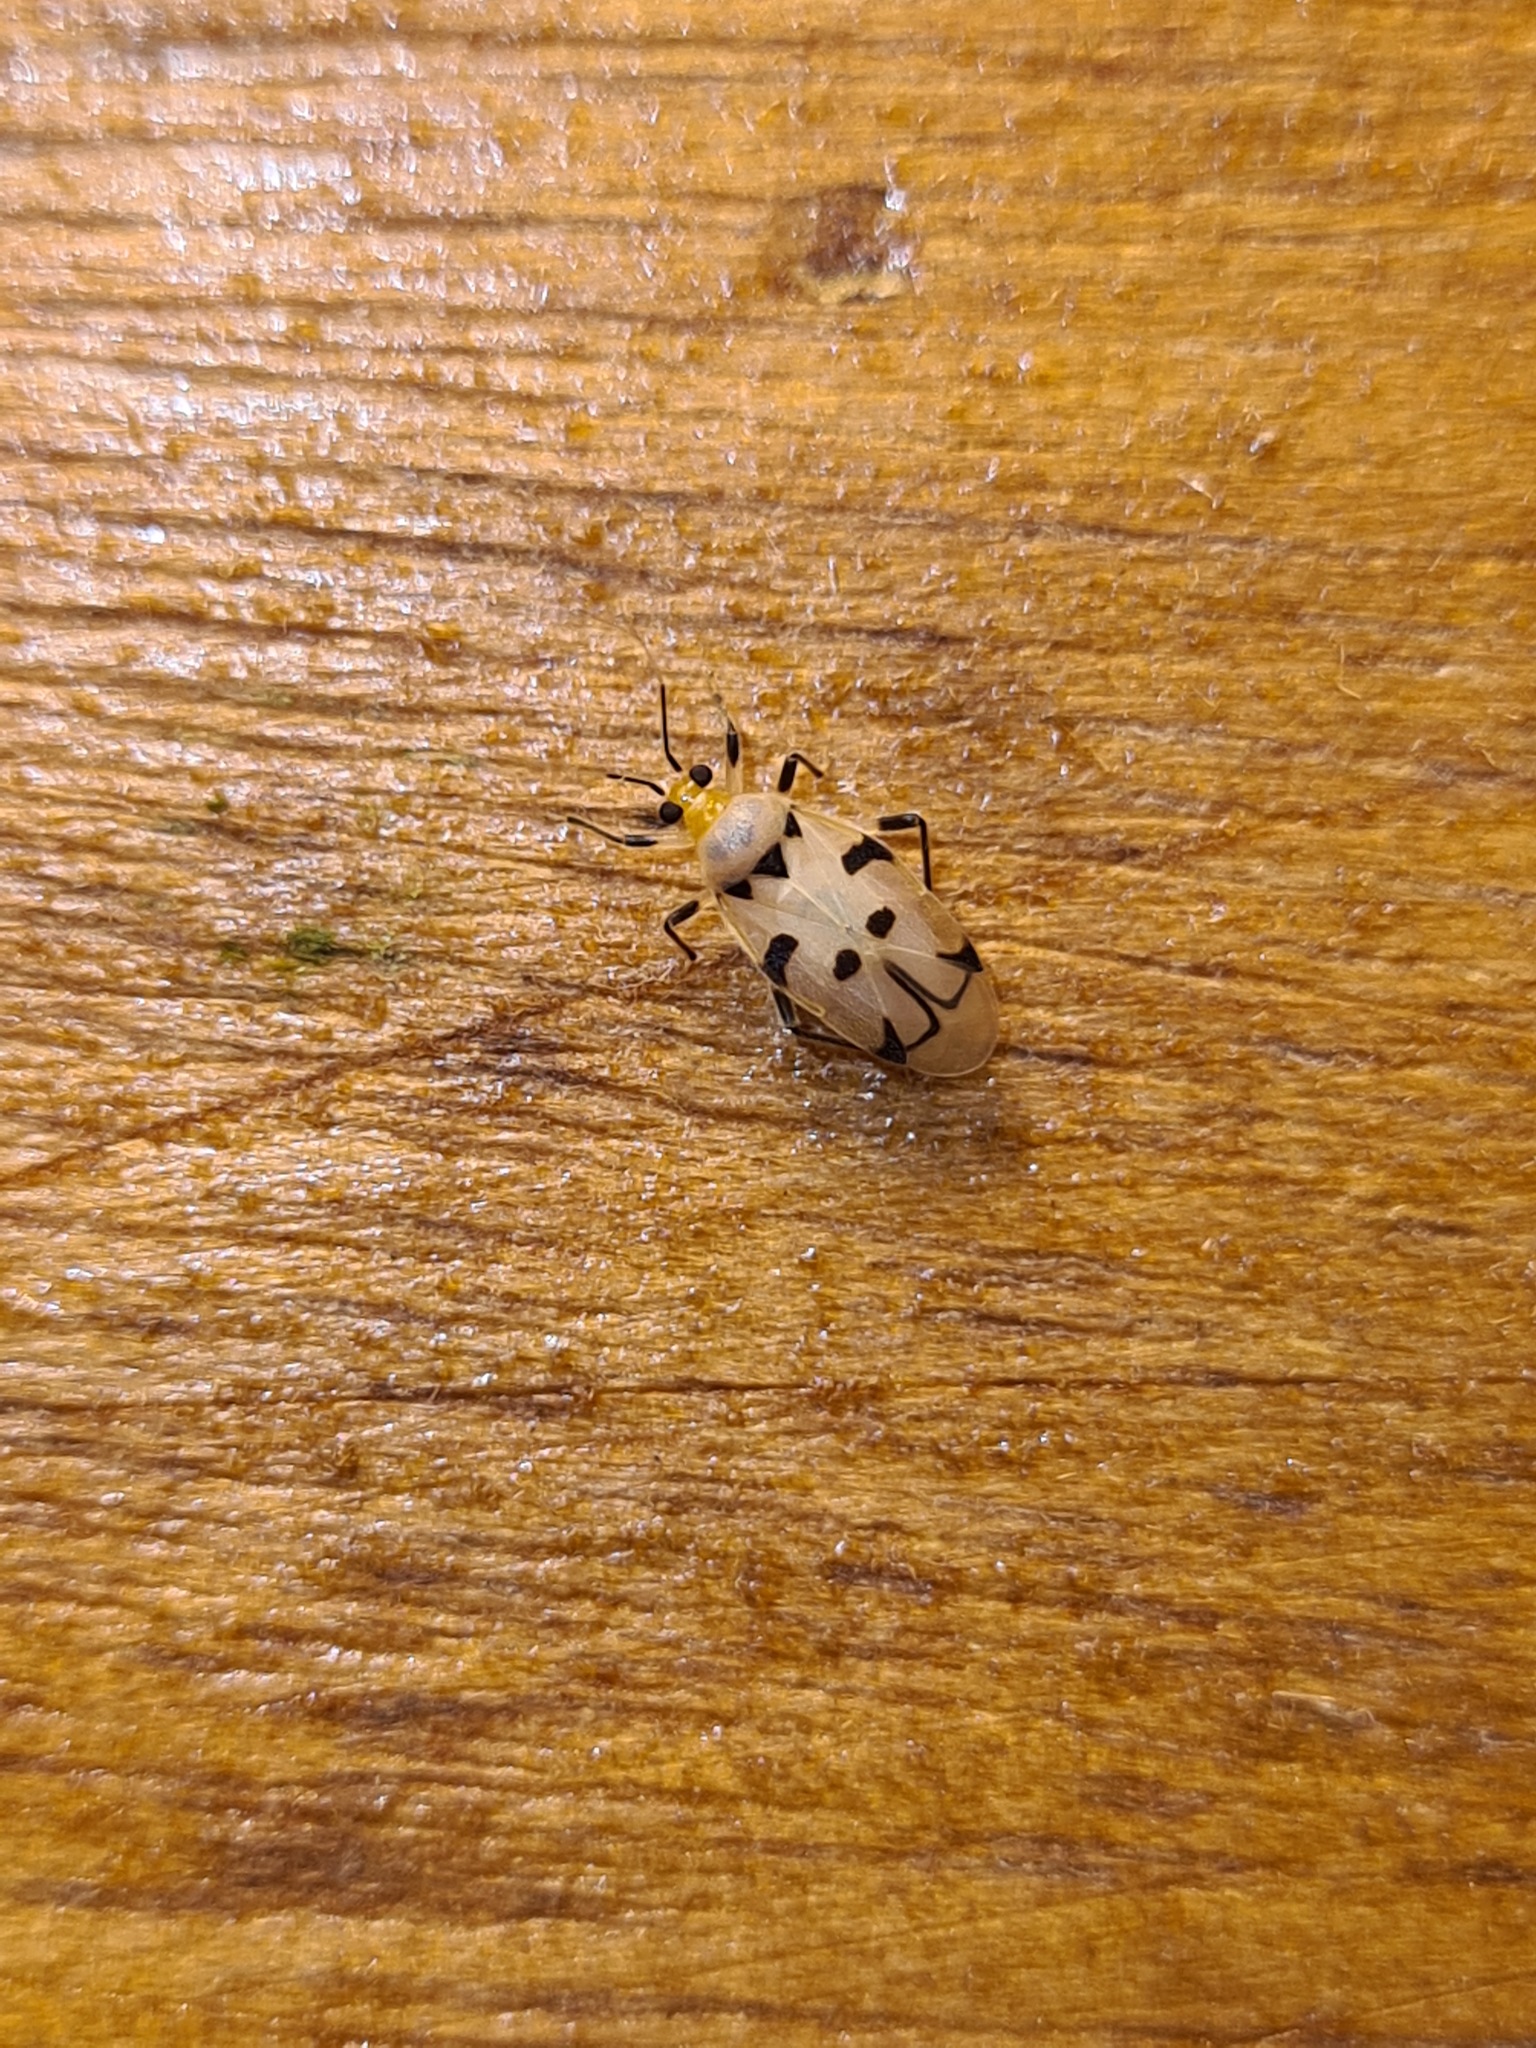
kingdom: Animalia
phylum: Arthropoda
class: Insecta
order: Hemiptera
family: Miridae
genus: Eccritotarsus
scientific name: Eccritotarsus tresrianus
